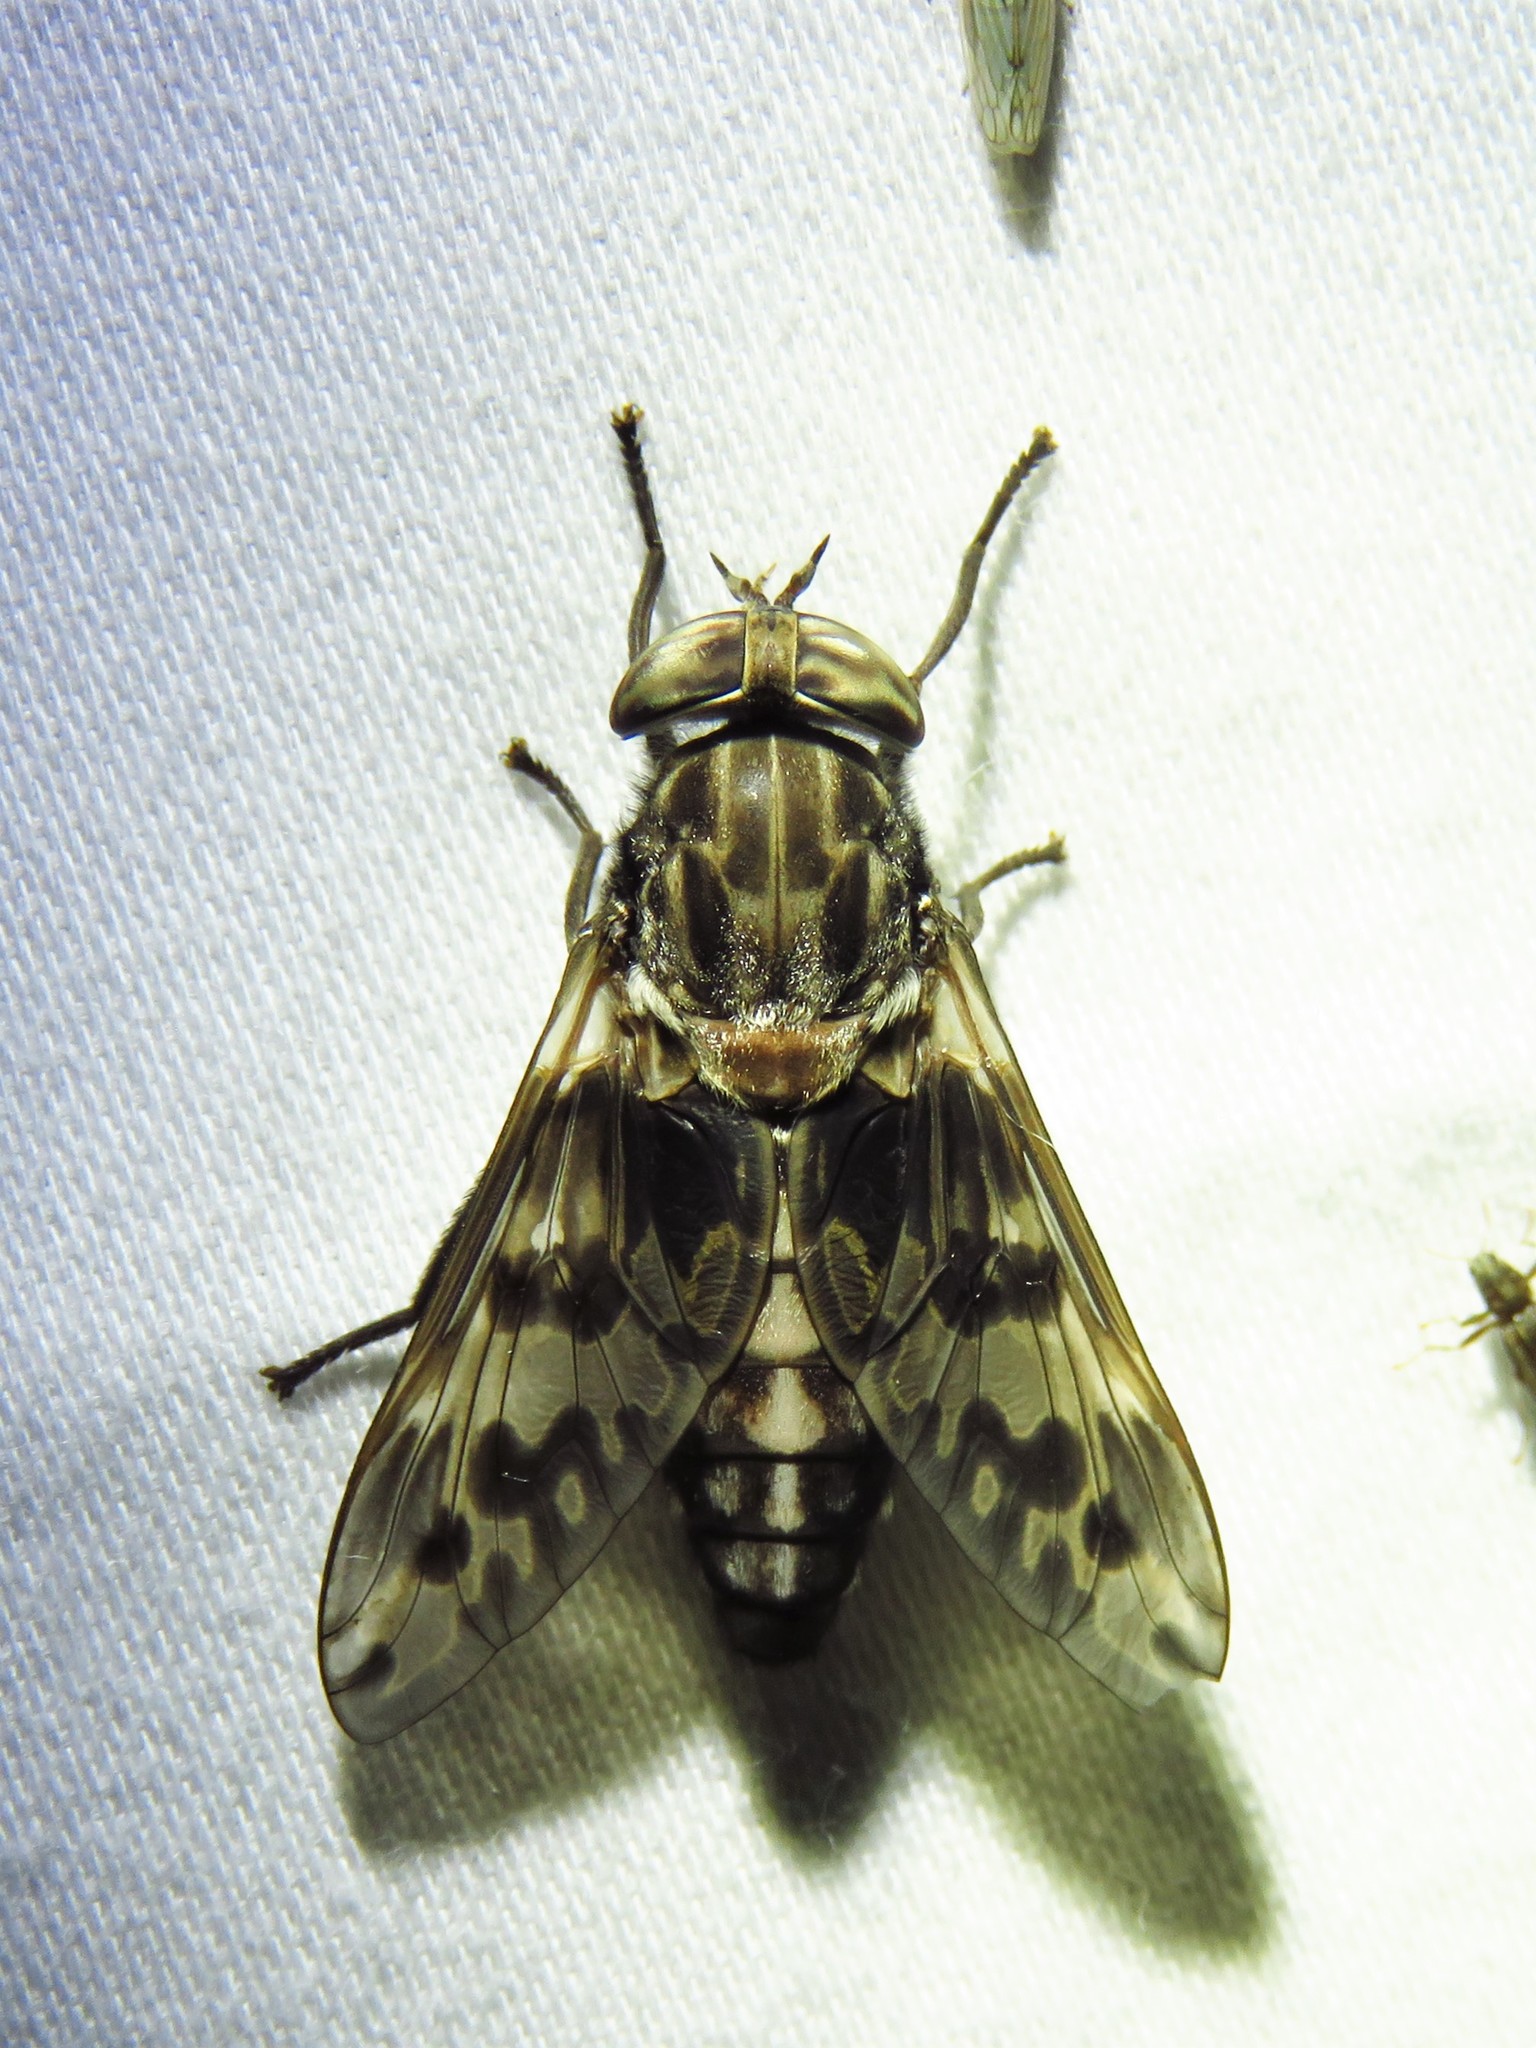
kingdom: Animalia
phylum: Arthropoda
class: Insecta
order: Diptera
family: Tabanidae
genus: Tabanus
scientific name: Tabanus venustus
